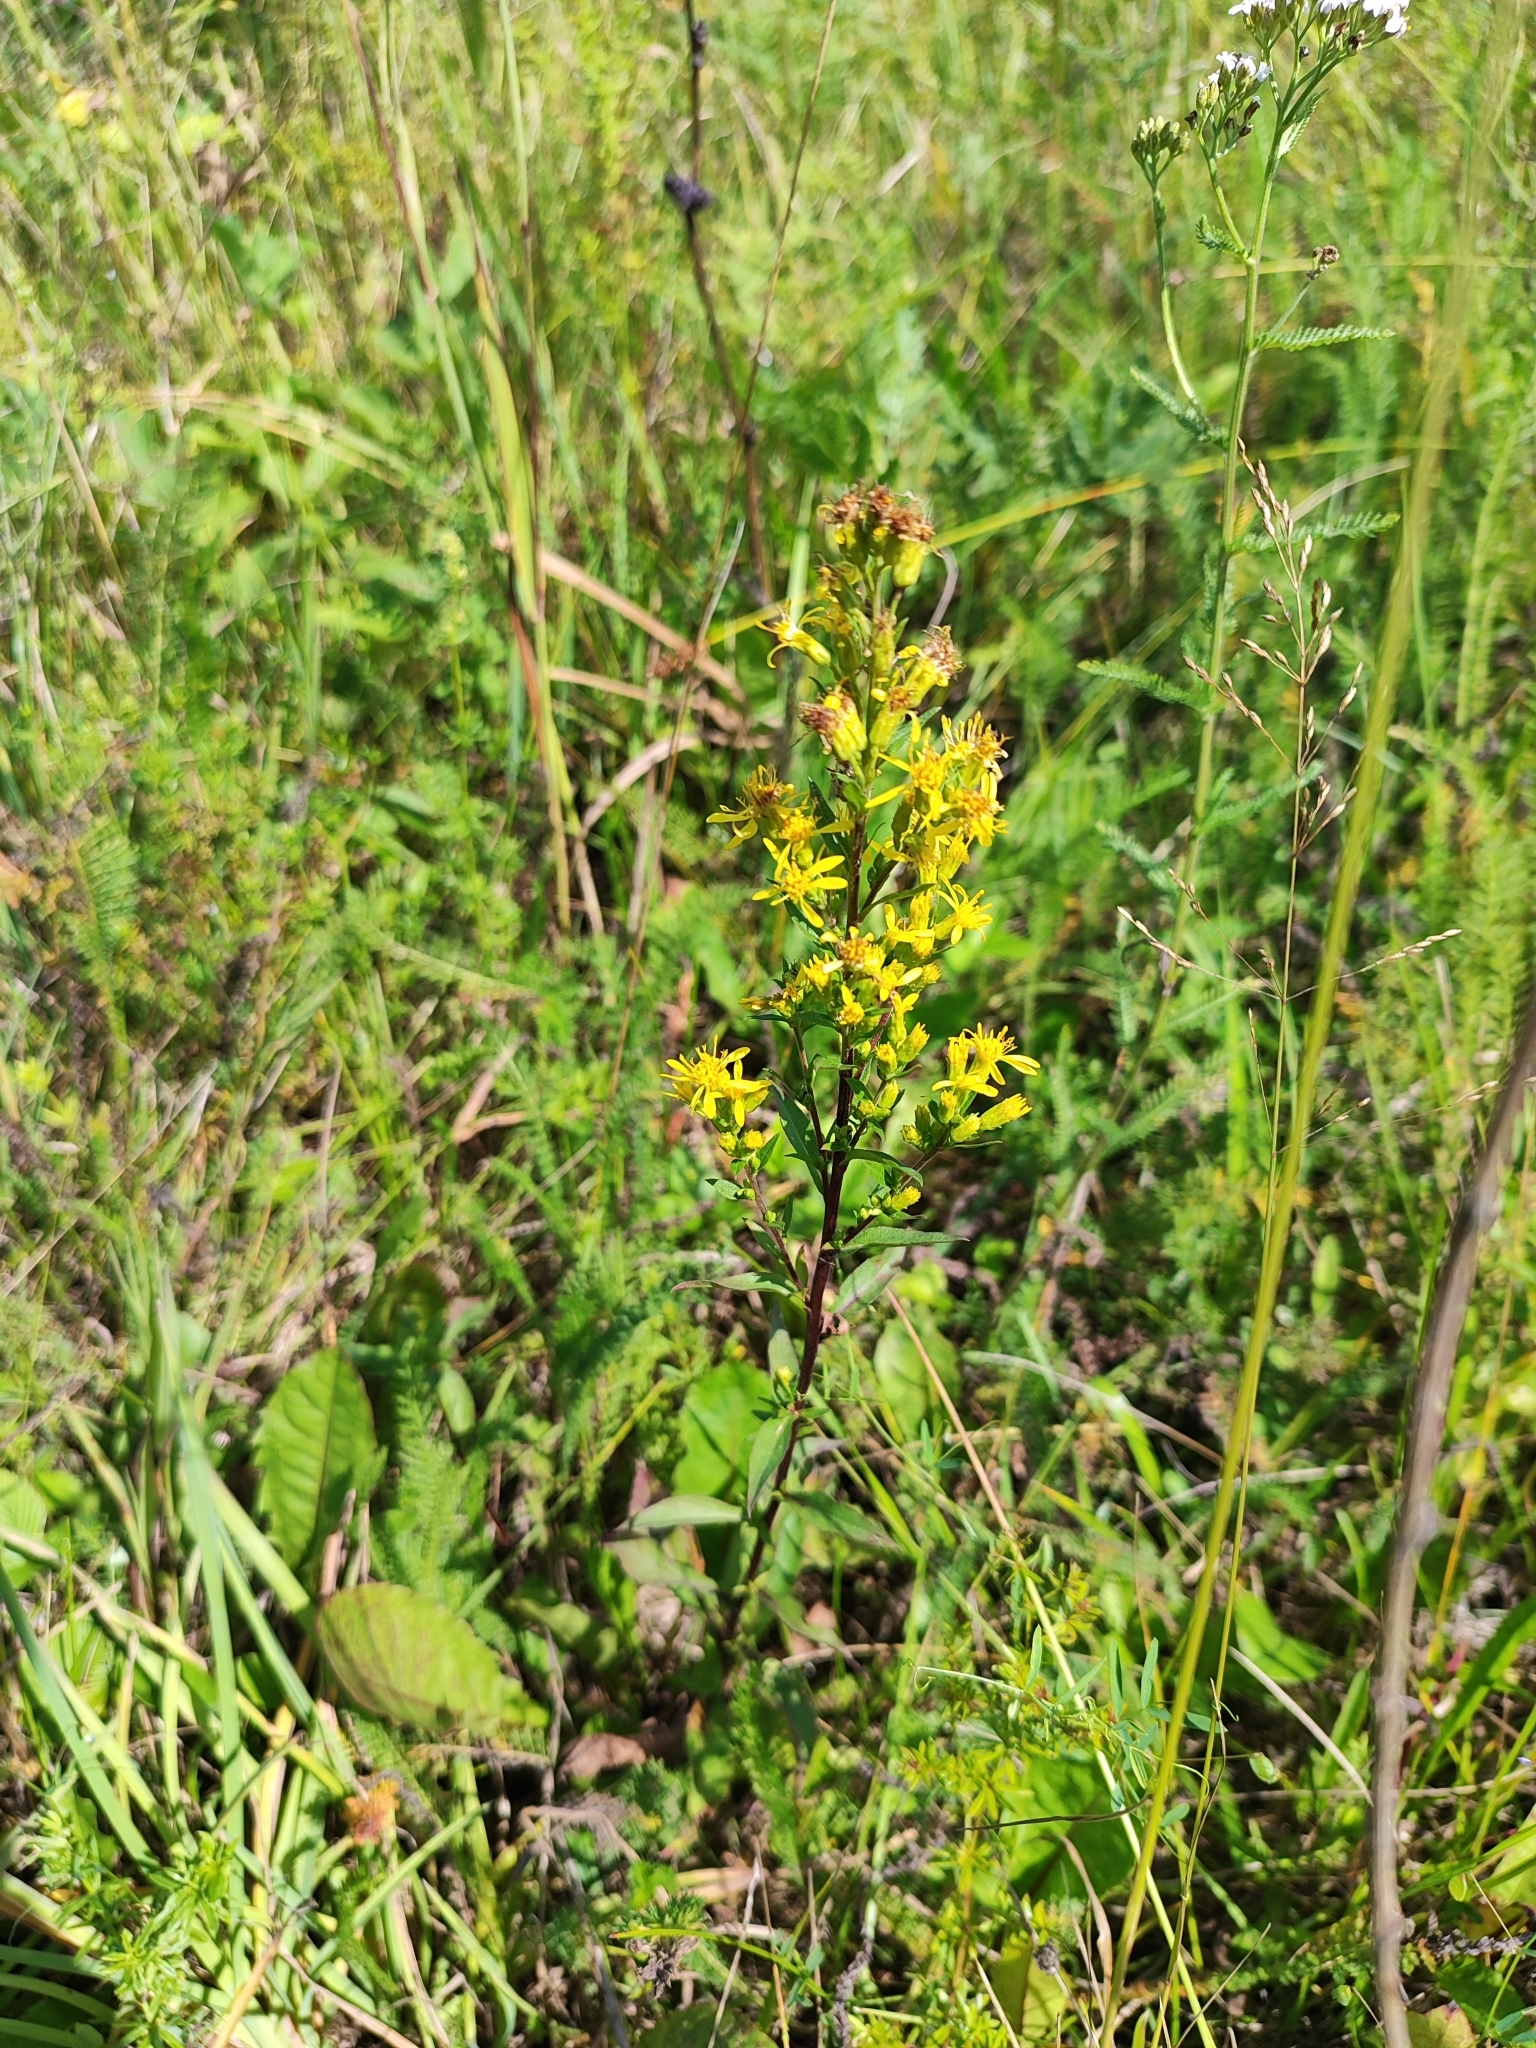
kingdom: Plantae
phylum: Tracheophyta
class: Magnoliopsida
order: Asterales
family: Asteraceae
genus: Solidago
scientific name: Solidago virgaurea
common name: Goldenrod
